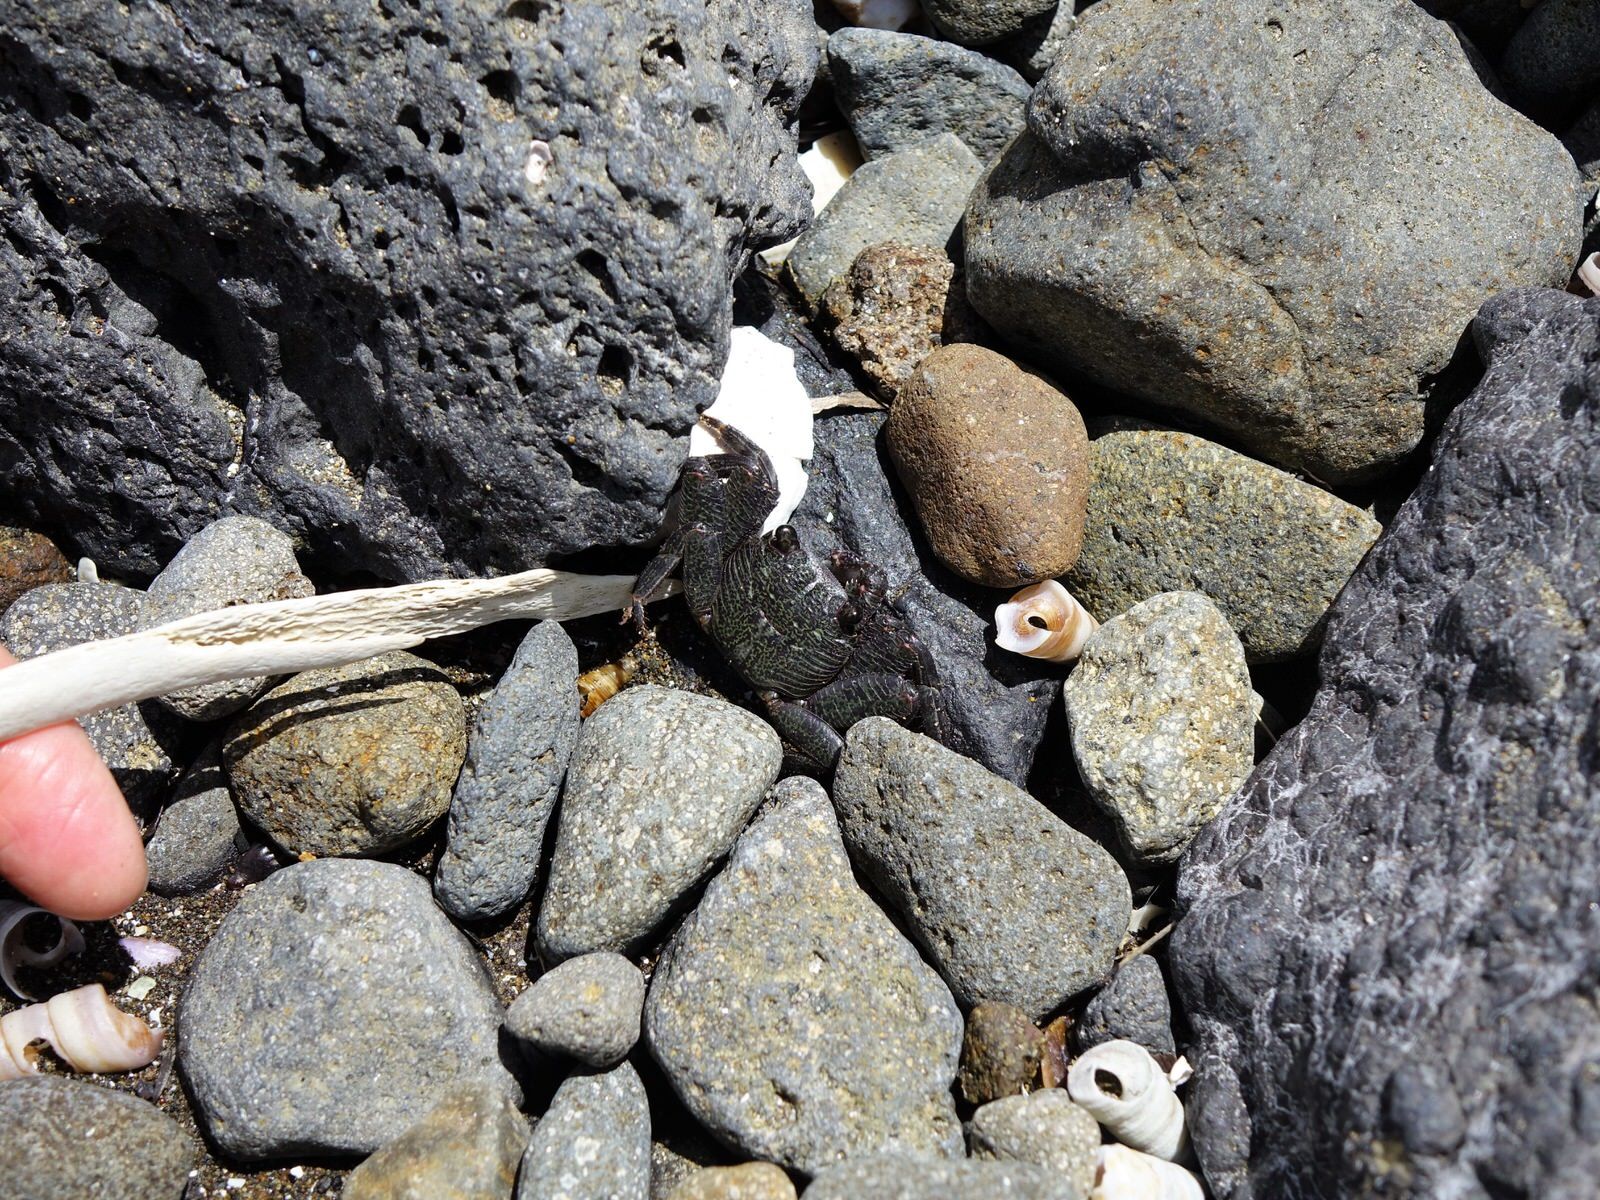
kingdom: Animalia
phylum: Arthropoda
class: Malacostraca
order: Decapoda
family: Grapsidae
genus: Leptograpsus
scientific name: Leptograpsus variegatus
